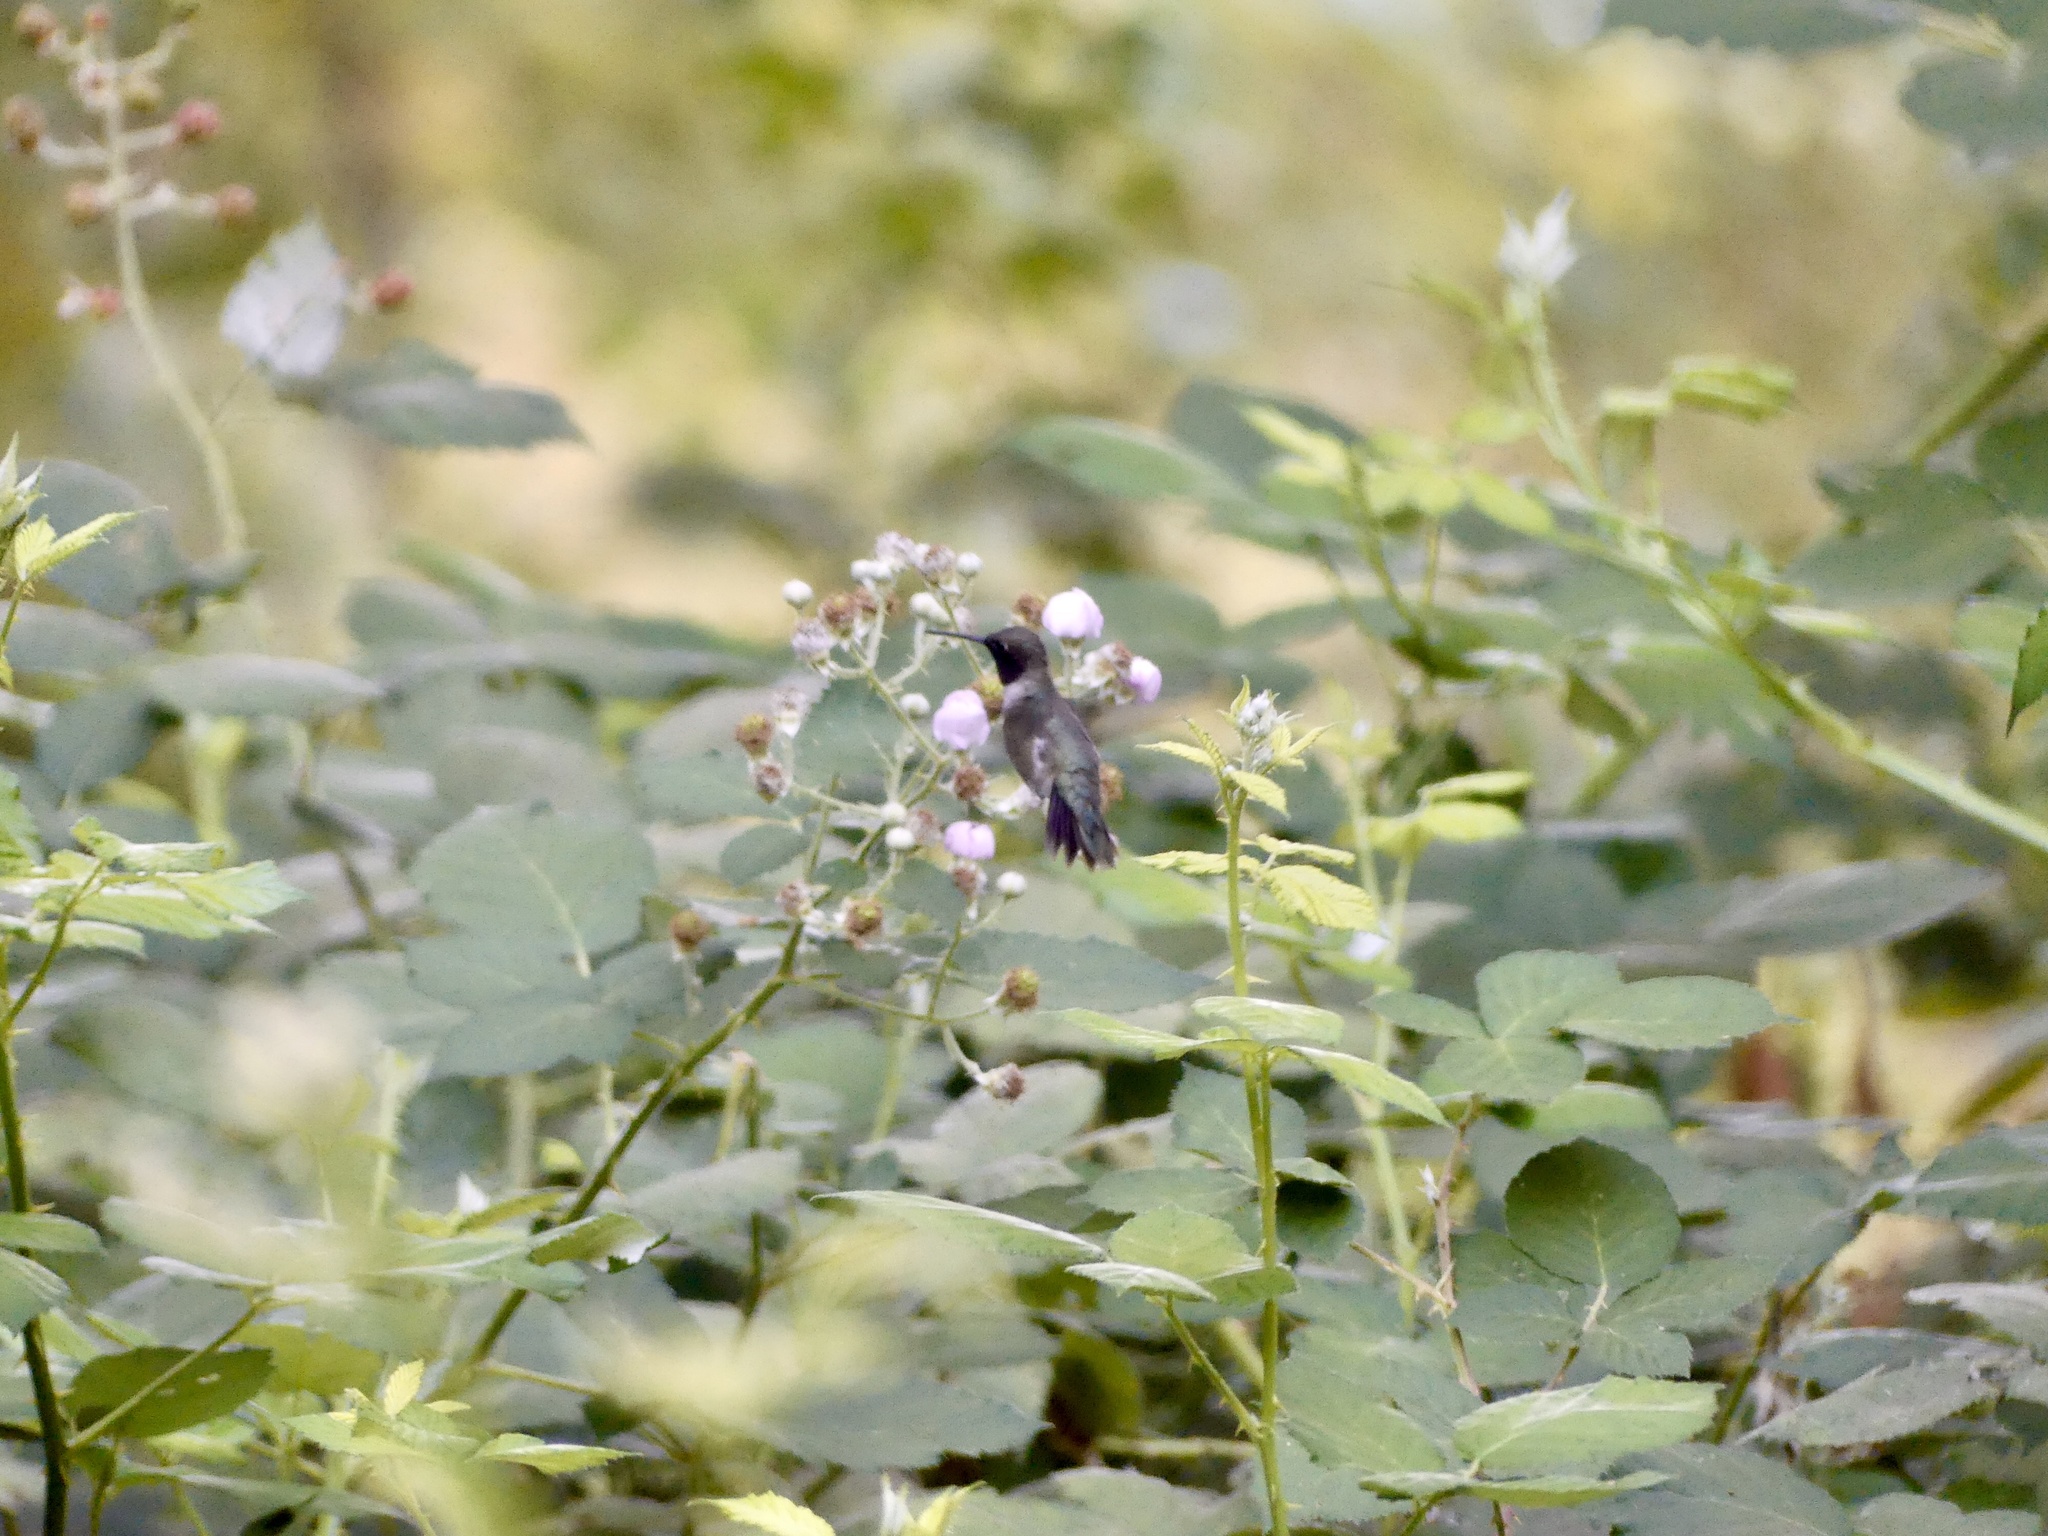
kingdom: Animalia
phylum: Chordata
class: Aves
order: Apodiformes
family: Trochilidae
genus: Archilochus
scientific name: Archilochus alexandri
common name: Black-chinned hummingbird
